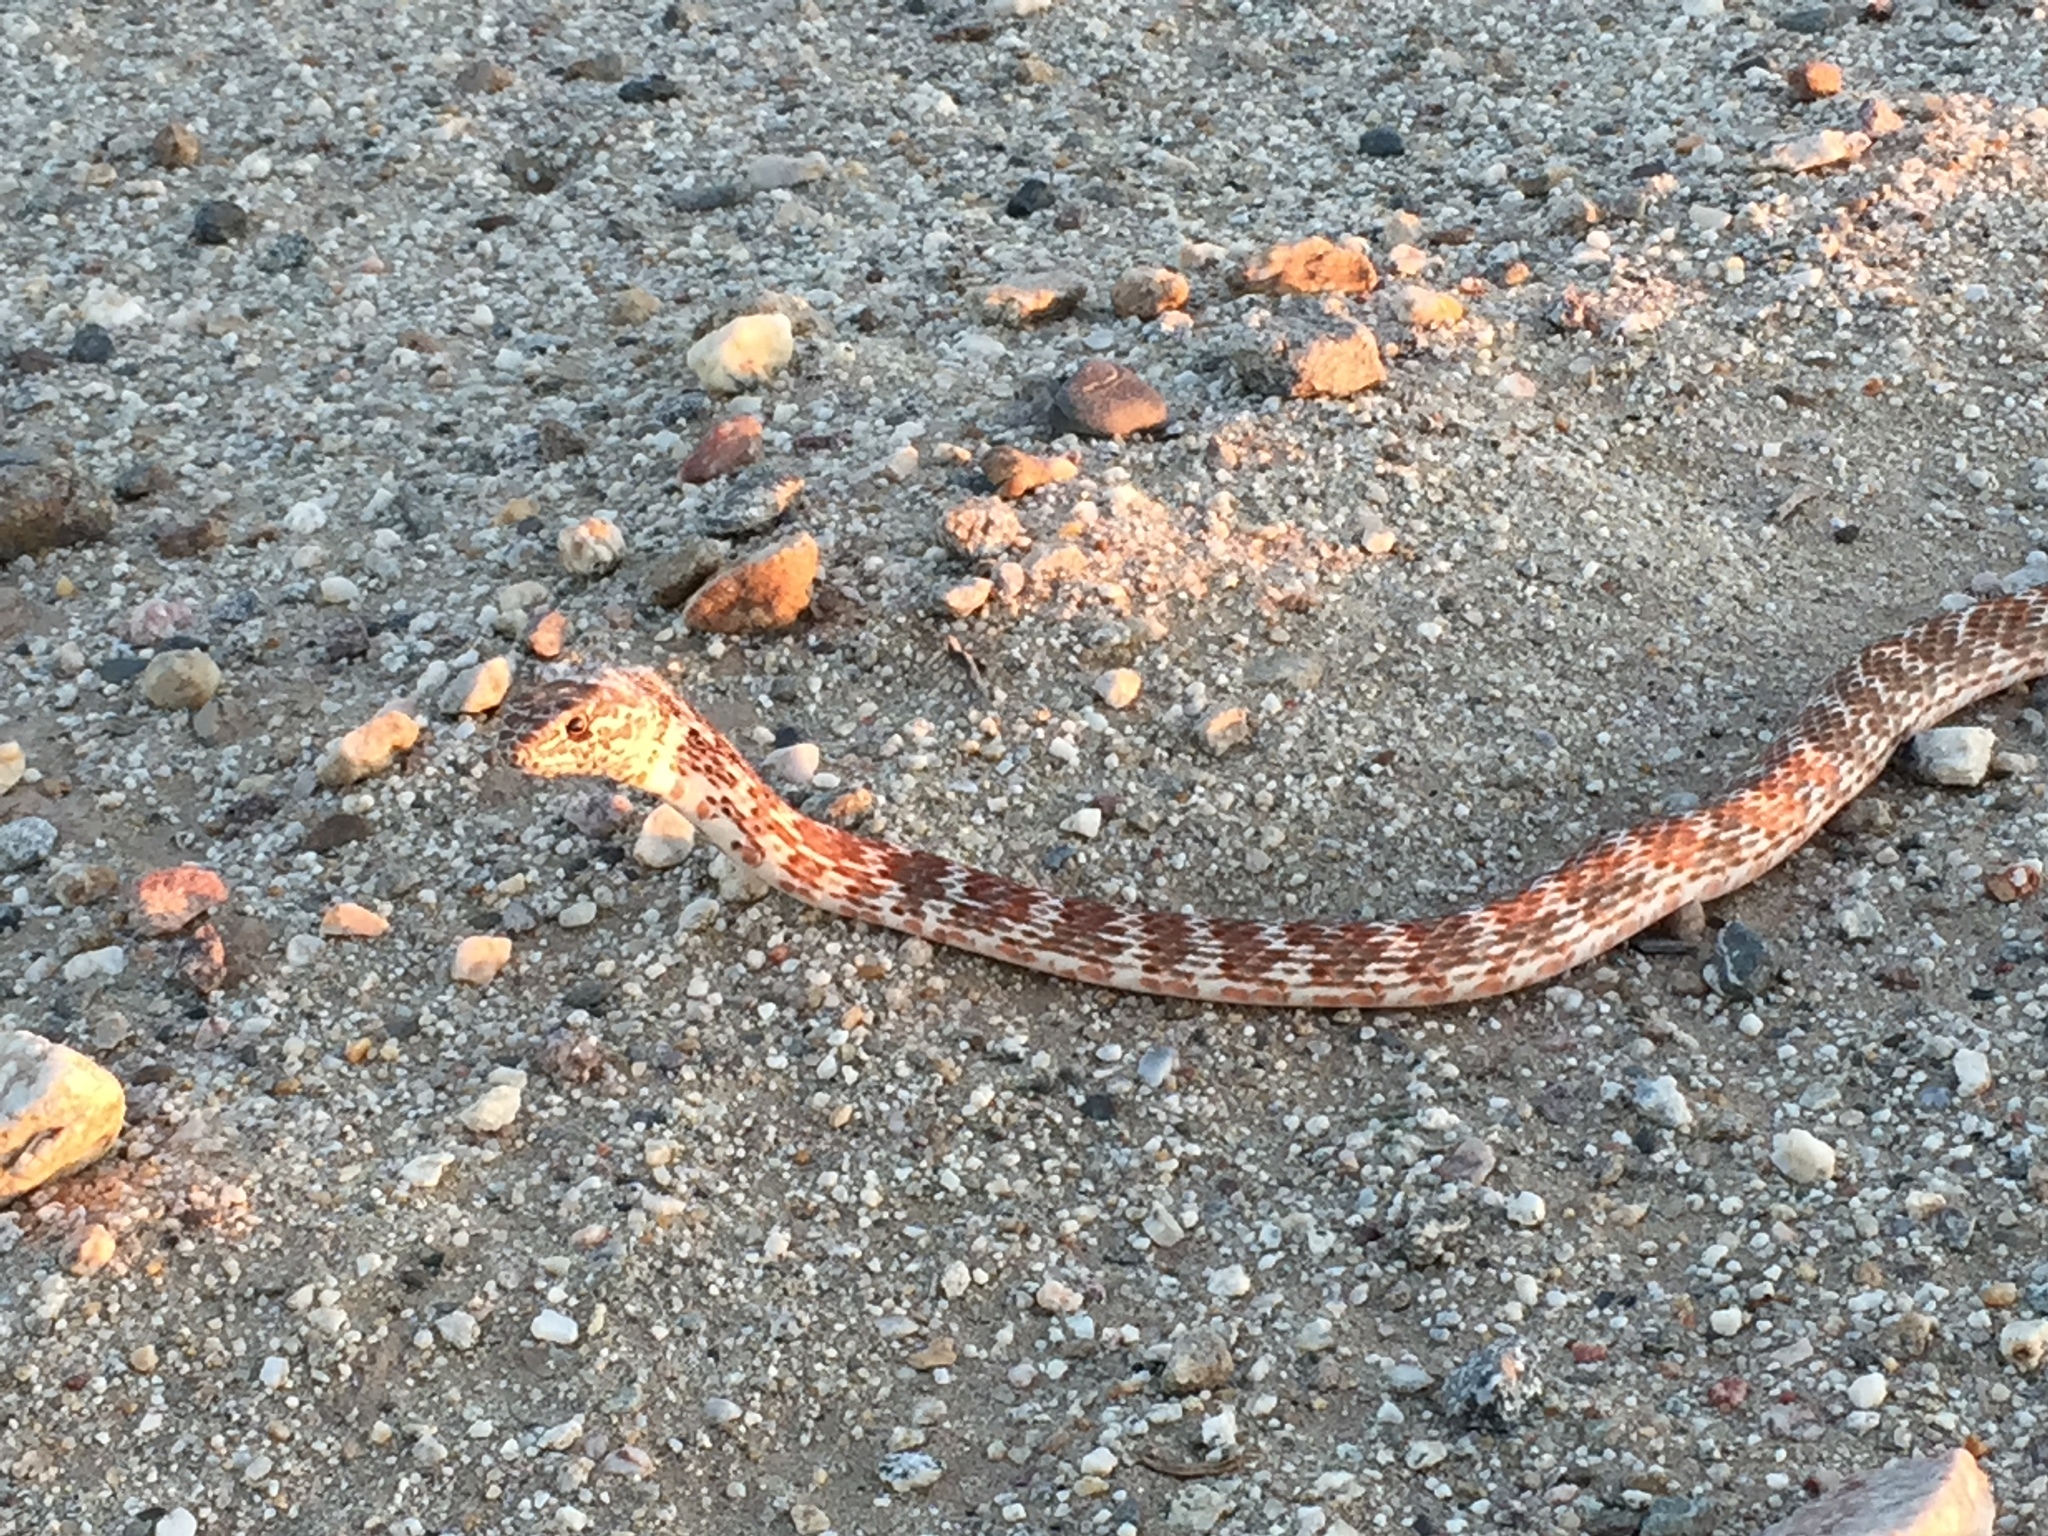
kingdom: Animalia
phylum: Chordata
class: Squamata
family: Colubridae
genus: Masticophis
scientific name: Masticophis flagellum
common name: Coachwhip
